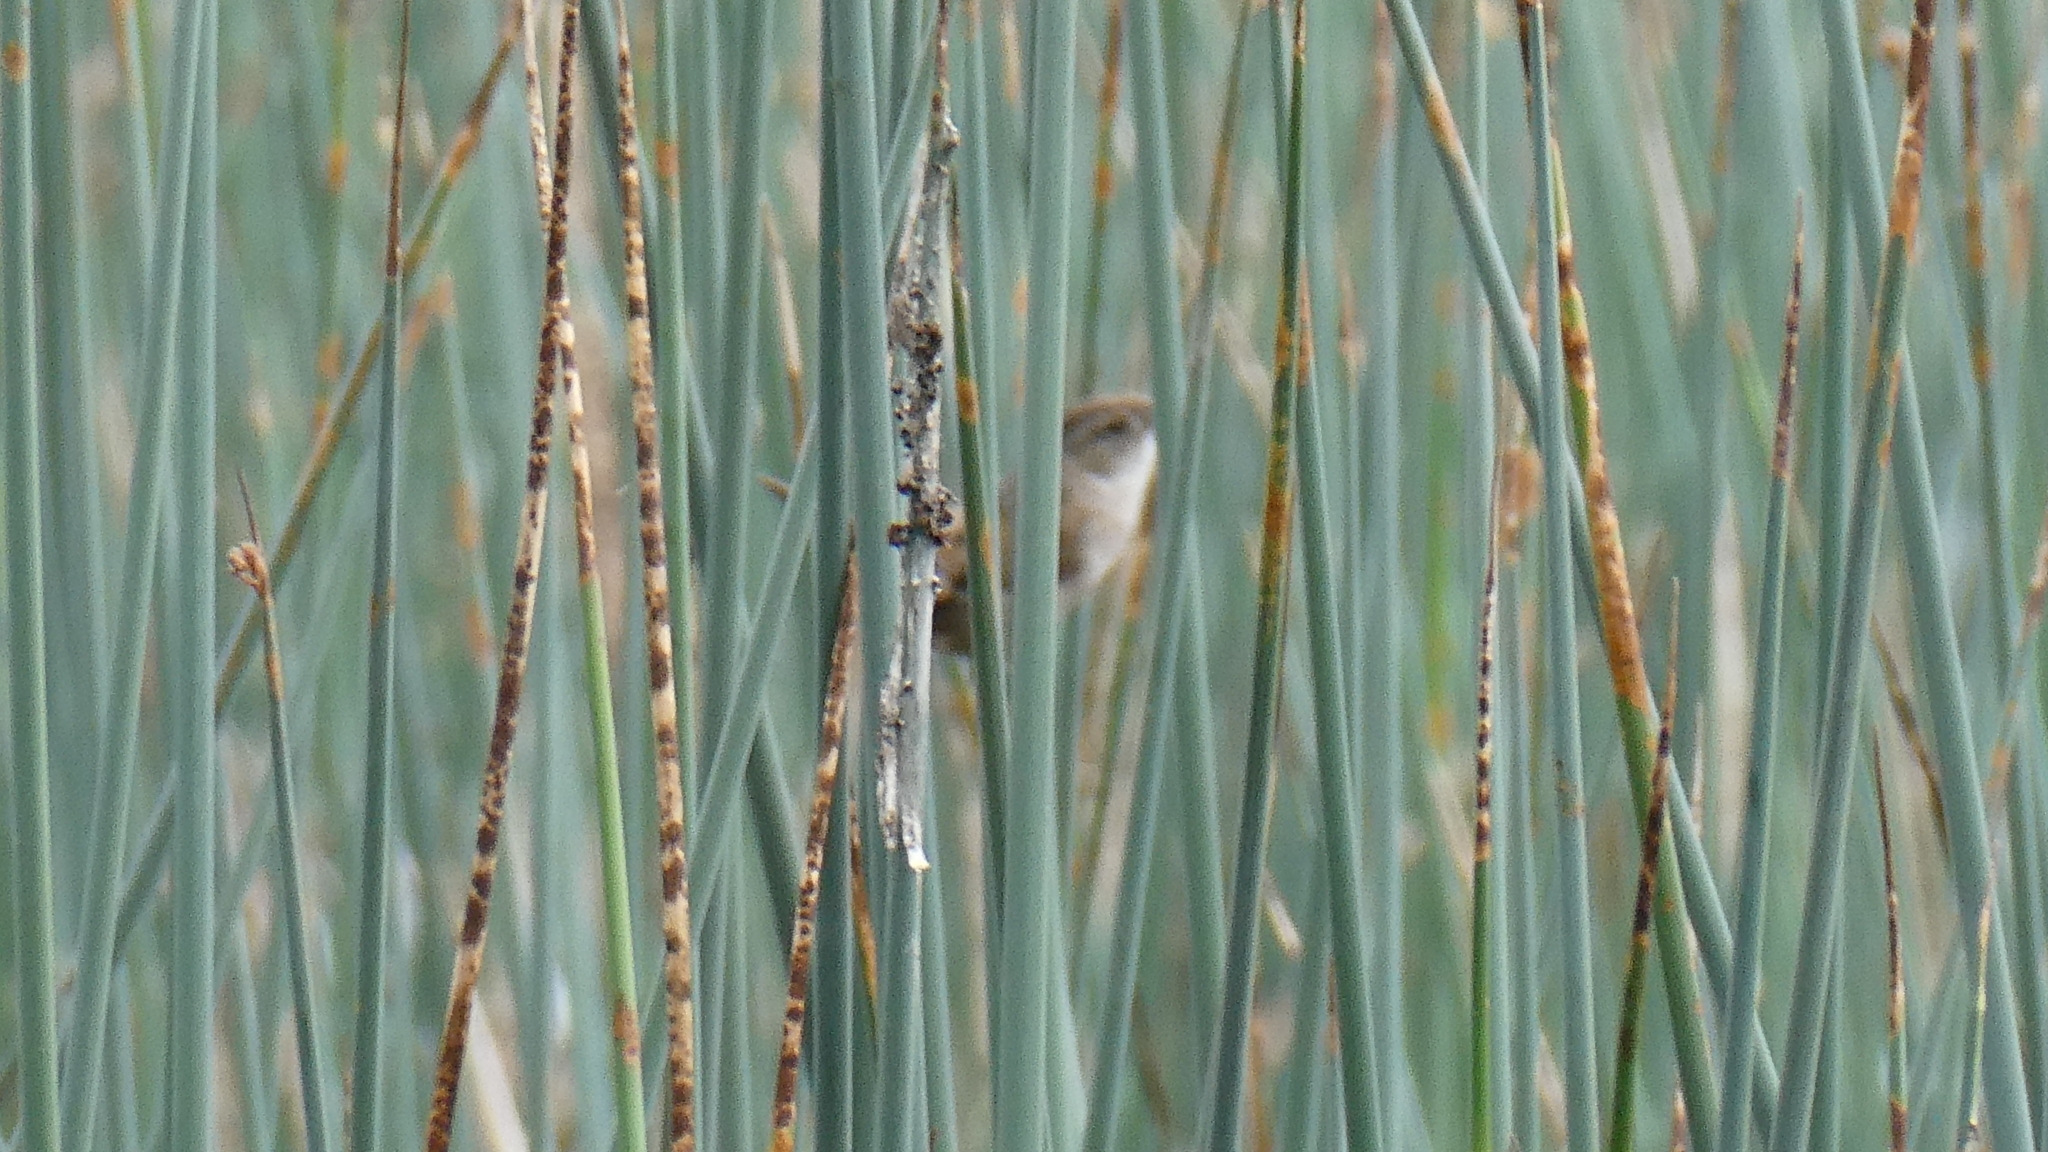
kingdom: Animalia
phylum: Chordata
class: Aves
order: Passeriformes
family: Troglodytidae
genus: Cistothorus
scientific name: Cistothorus palustris
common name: Marsh wren
